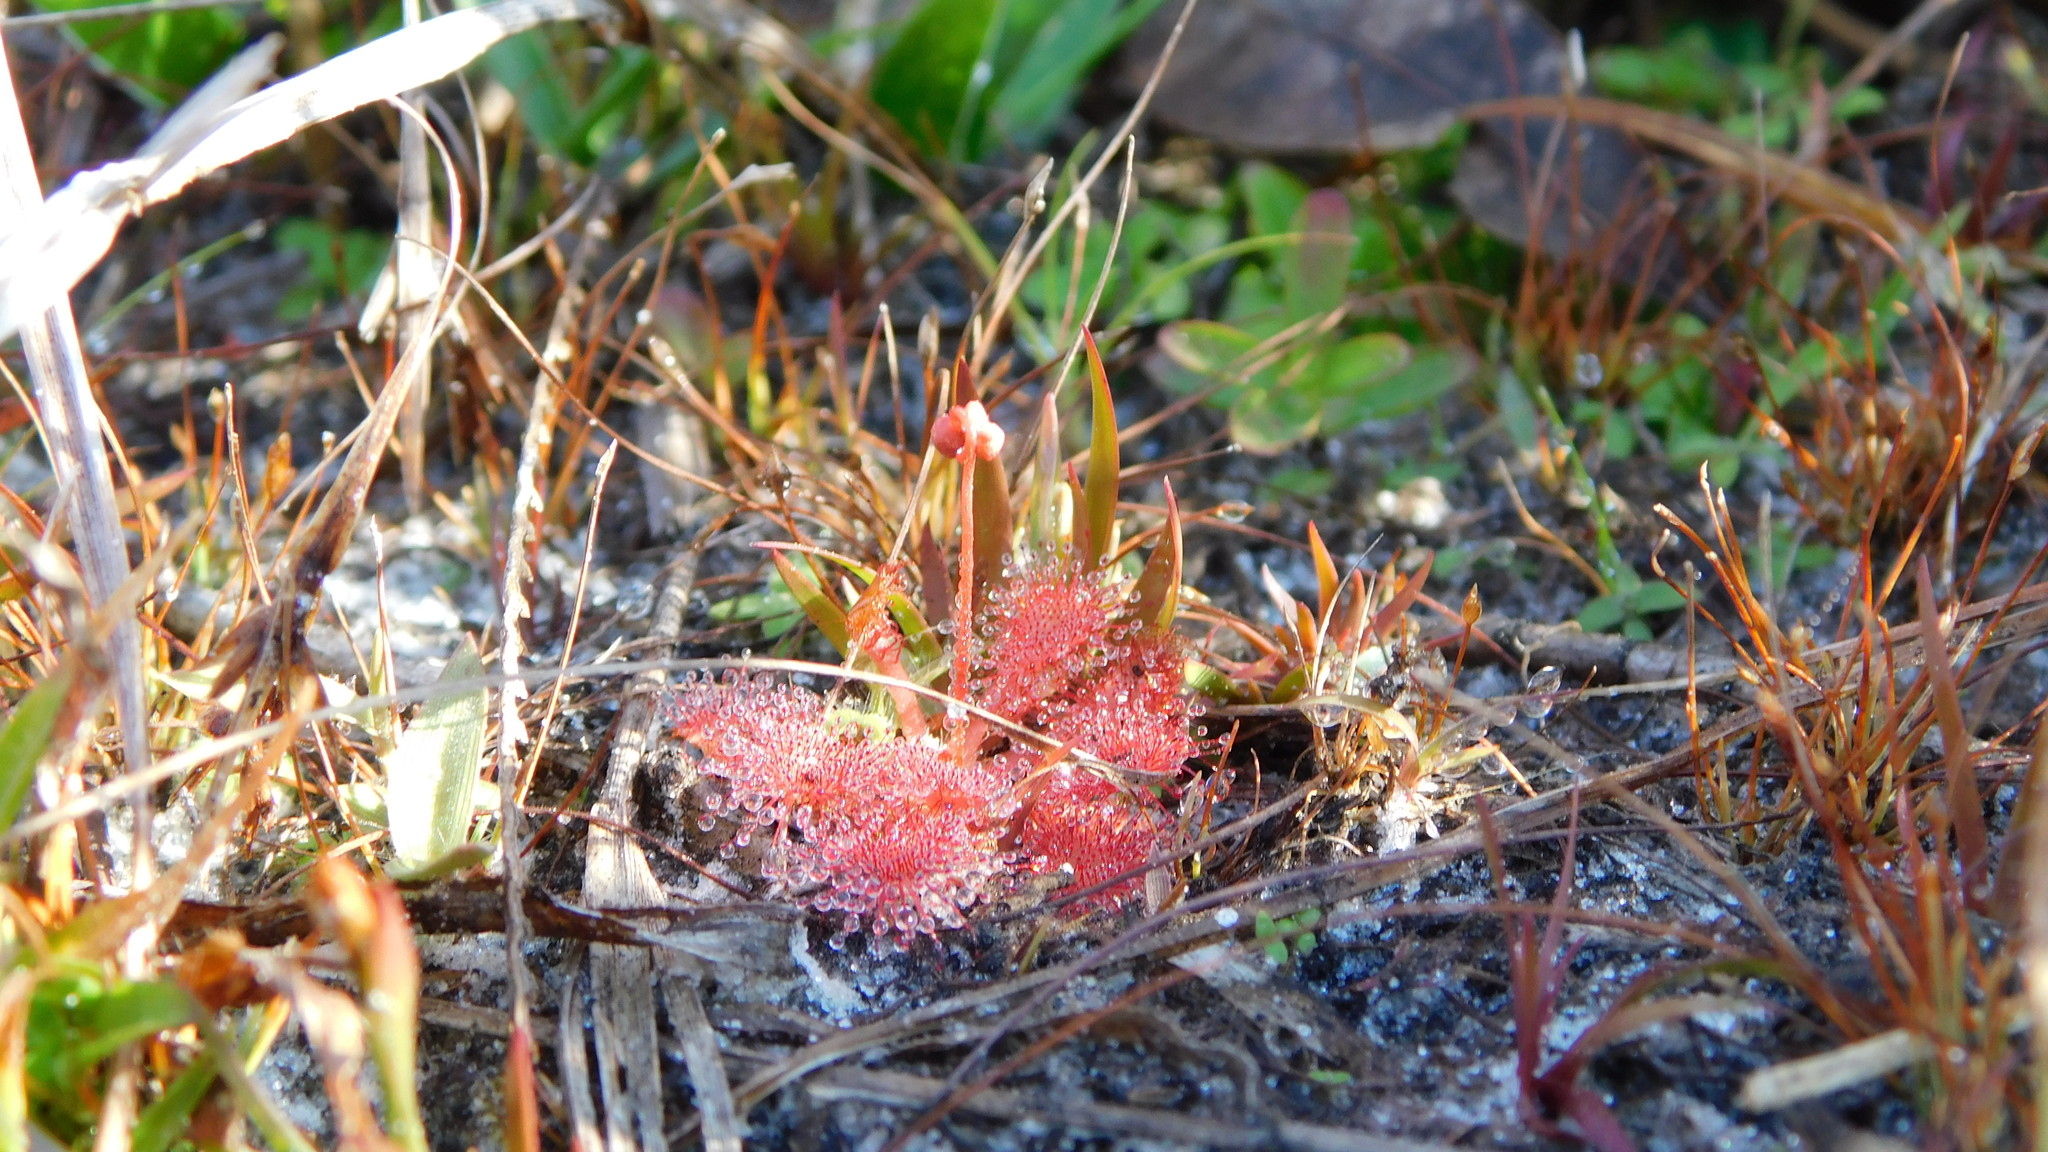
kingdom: Plantae
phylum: Tracheophyta
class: Magnoliopsida
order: Caryophyllales
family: Droseraceae
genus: Drosera
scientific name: Drosera capillaris
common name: Pink sundew
